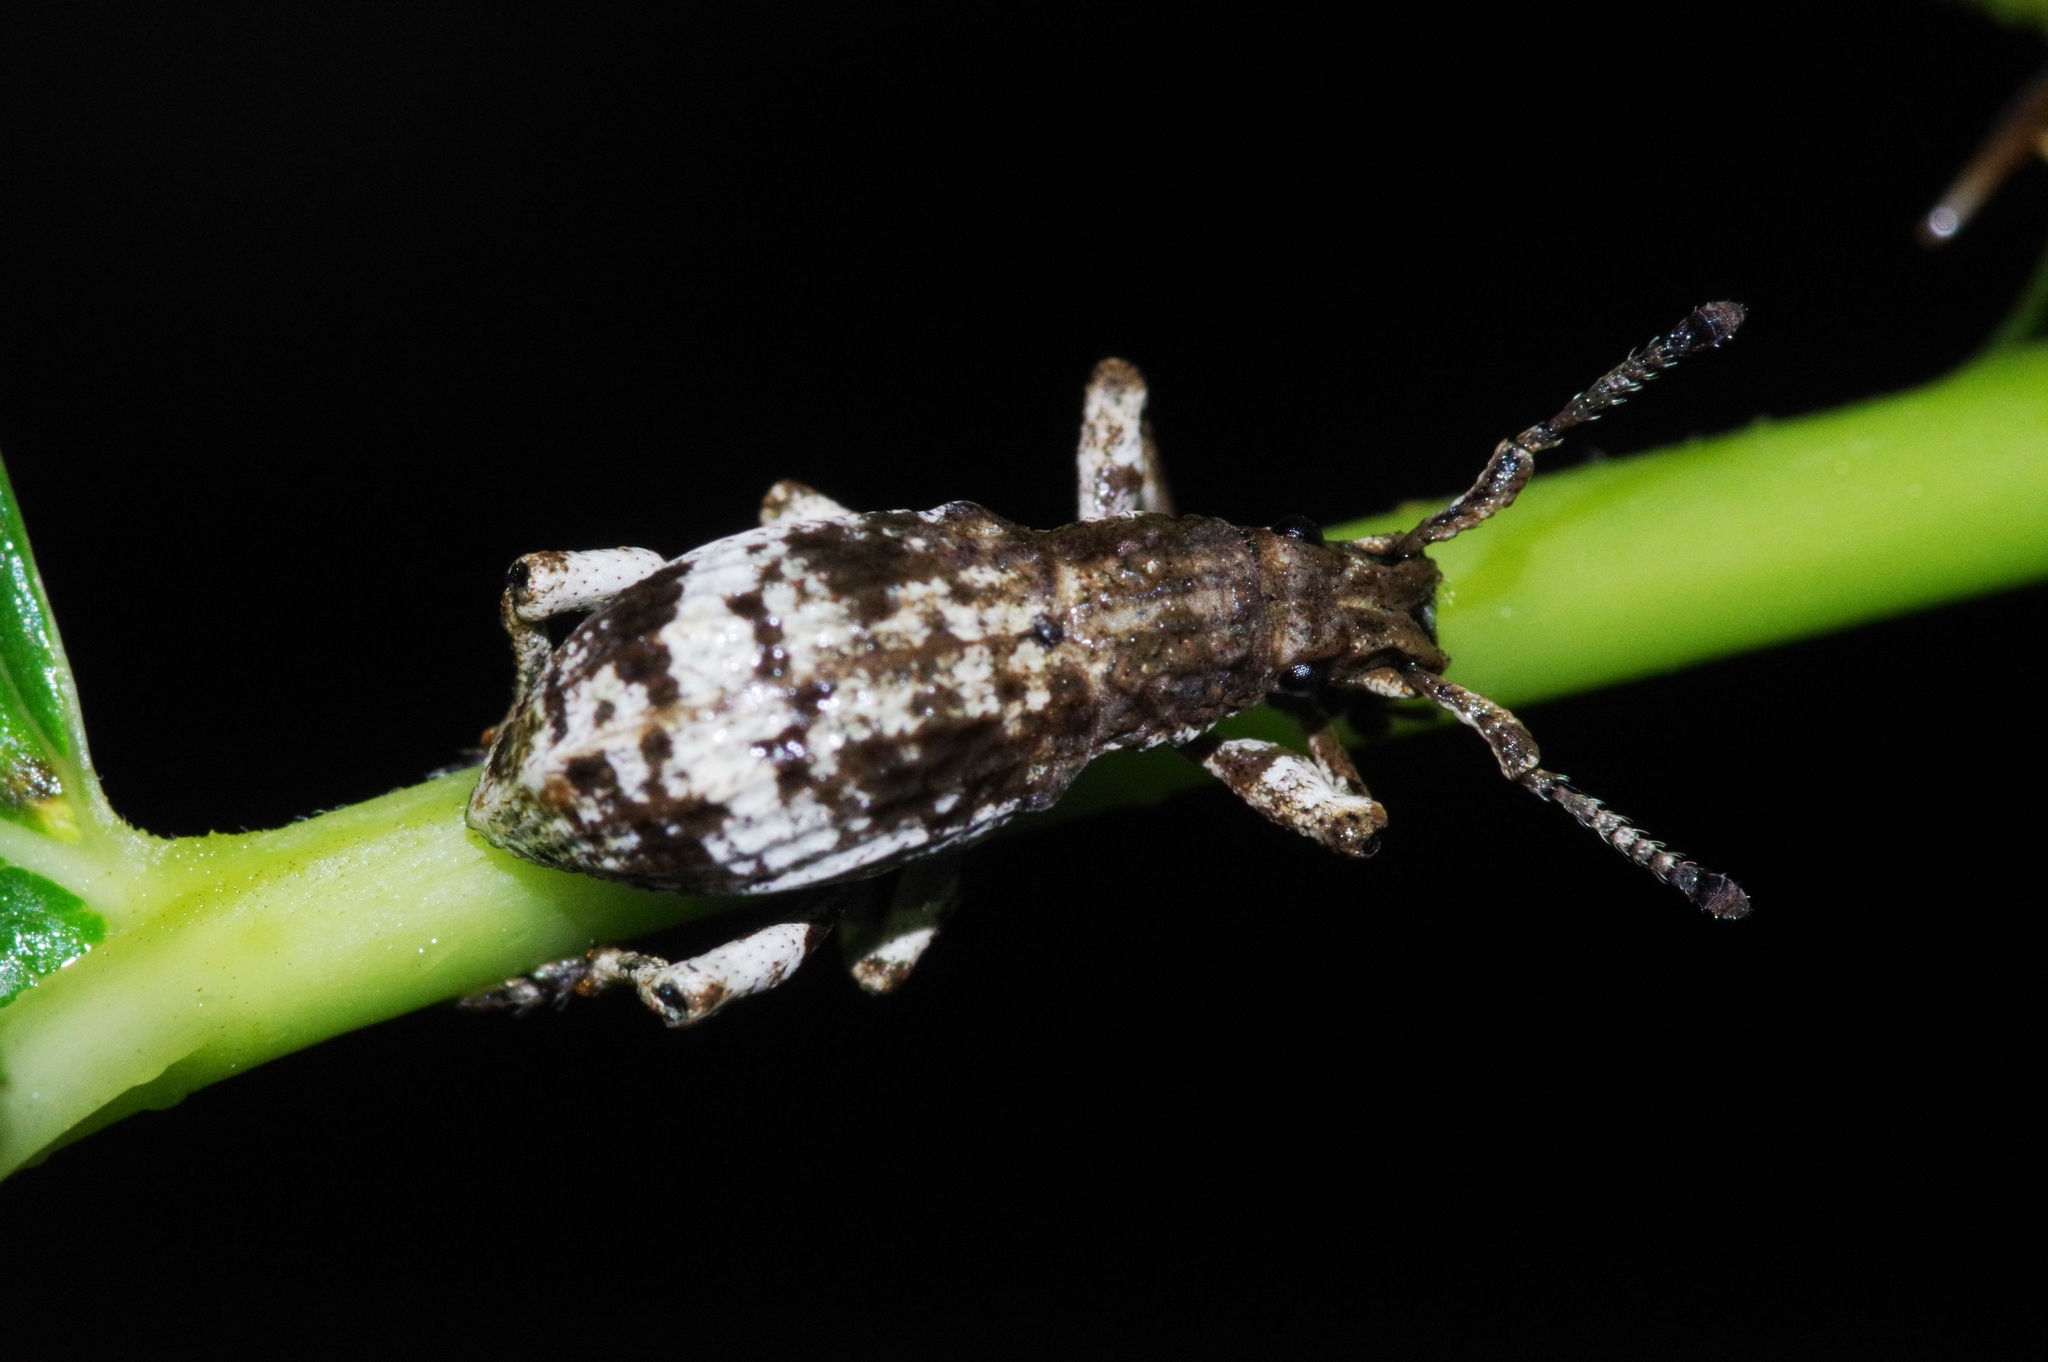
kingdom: Animalia
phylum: Arthropoda
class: Insecta
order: Coleoptera
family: Curculionidae
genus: Episomus
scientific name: Episomus mori
